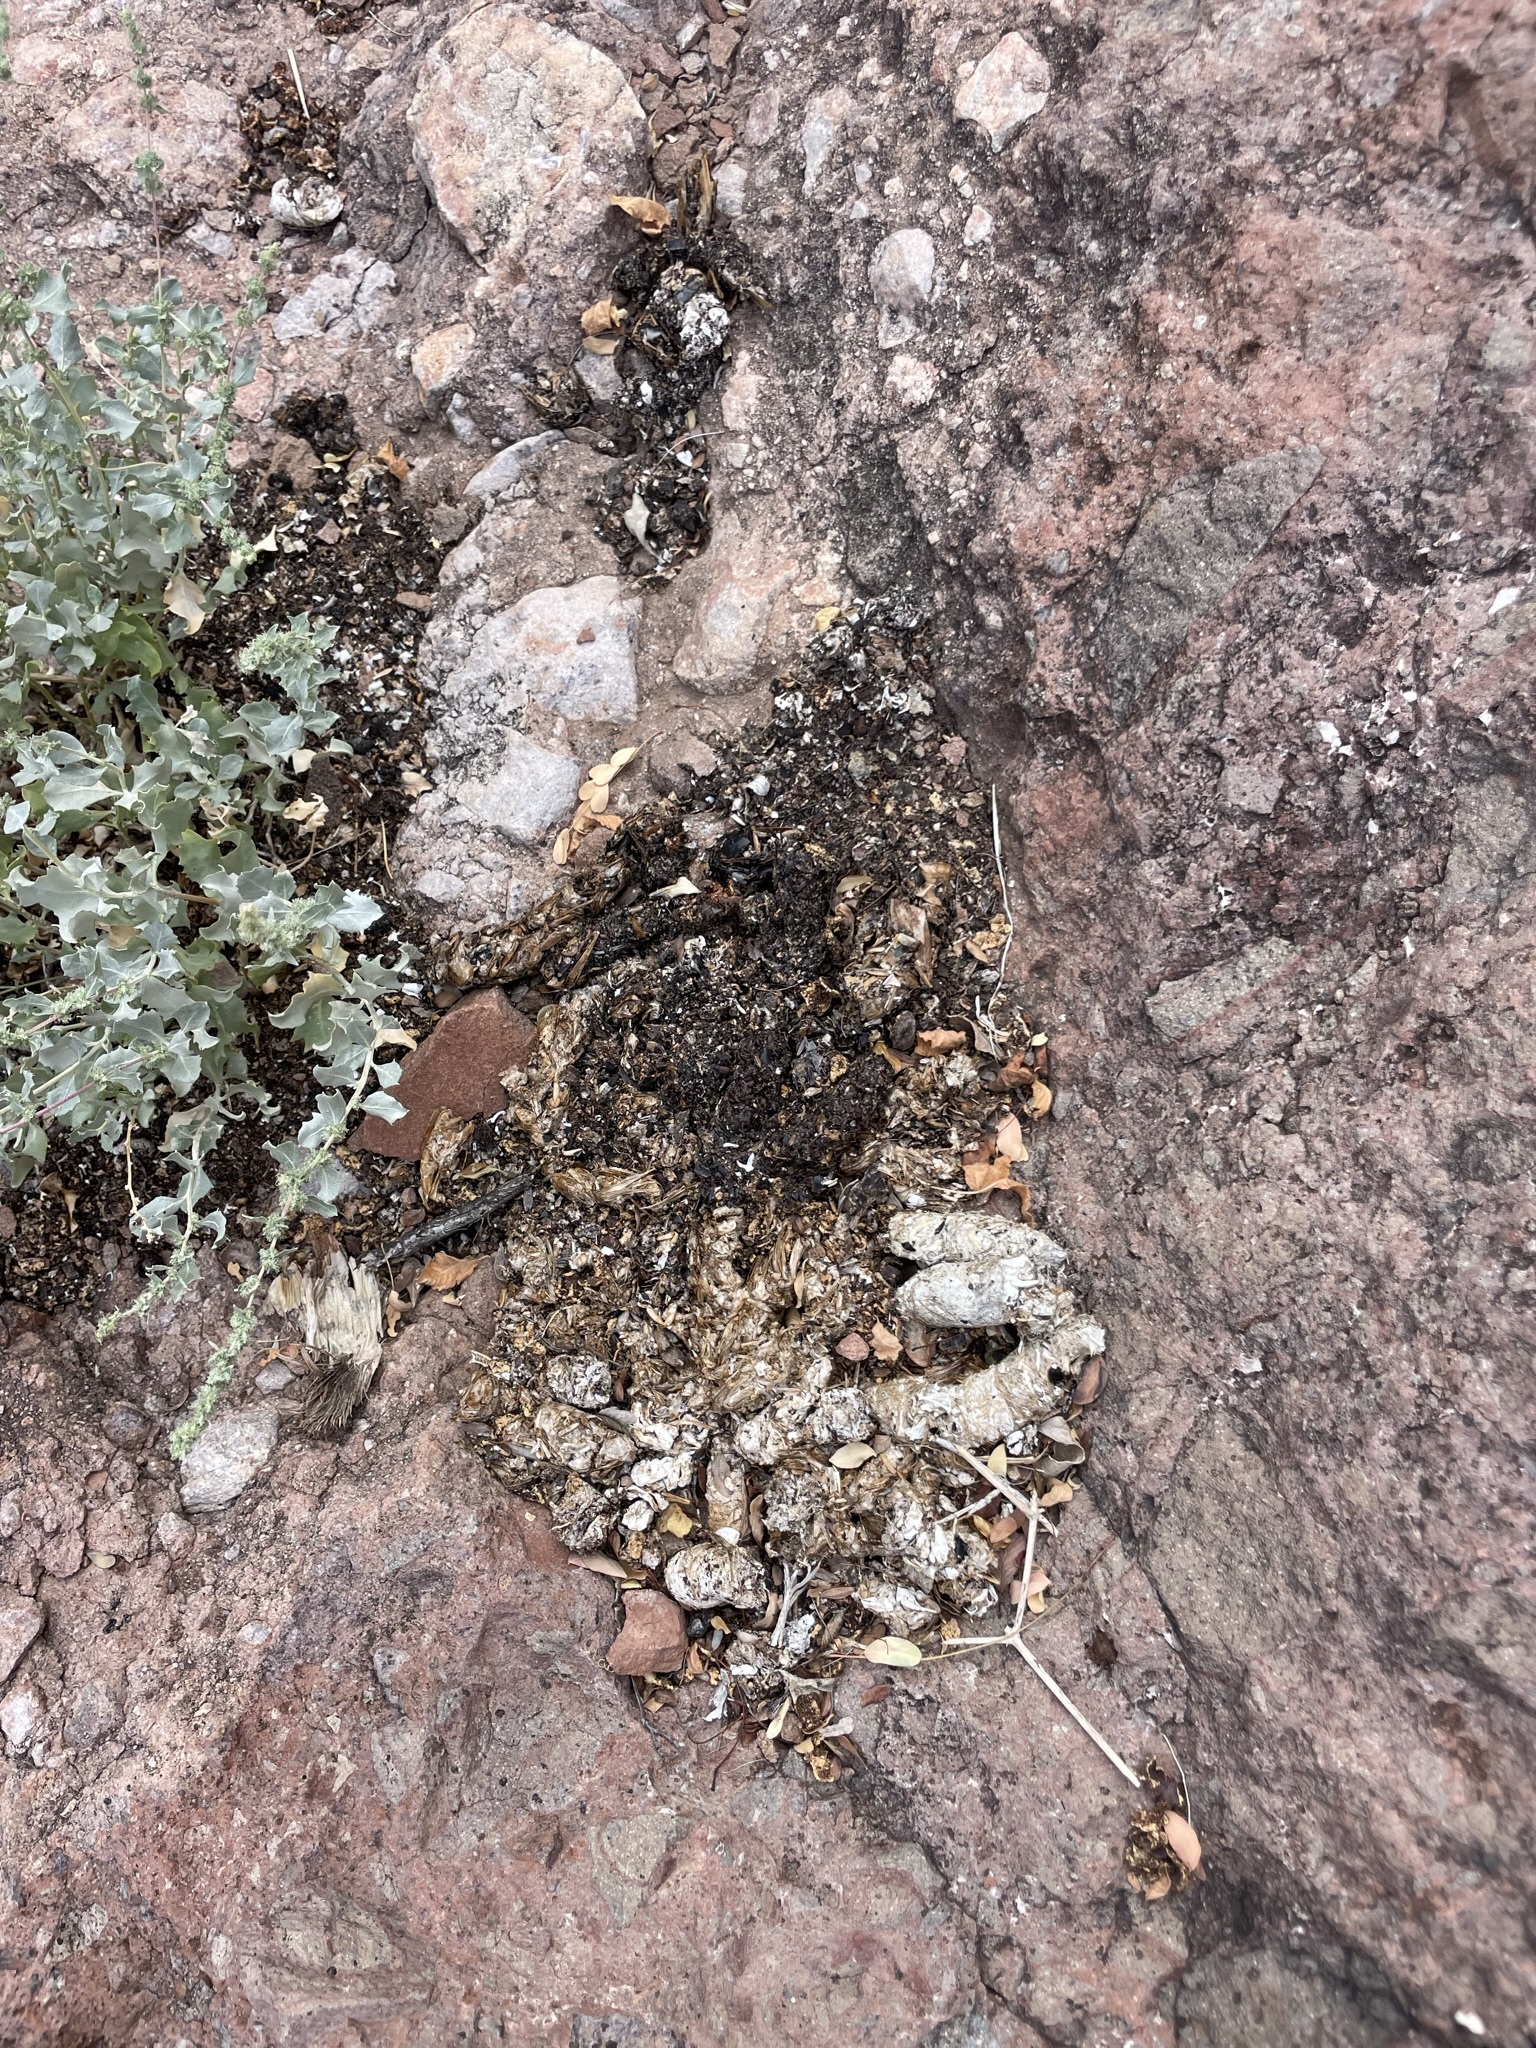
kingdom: Animalia
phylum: Chordata
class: Mammalia
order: Carnivora
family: Canidae
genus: Urocyon
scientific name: Urocyon cinereoargenteus
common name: Gray fox
